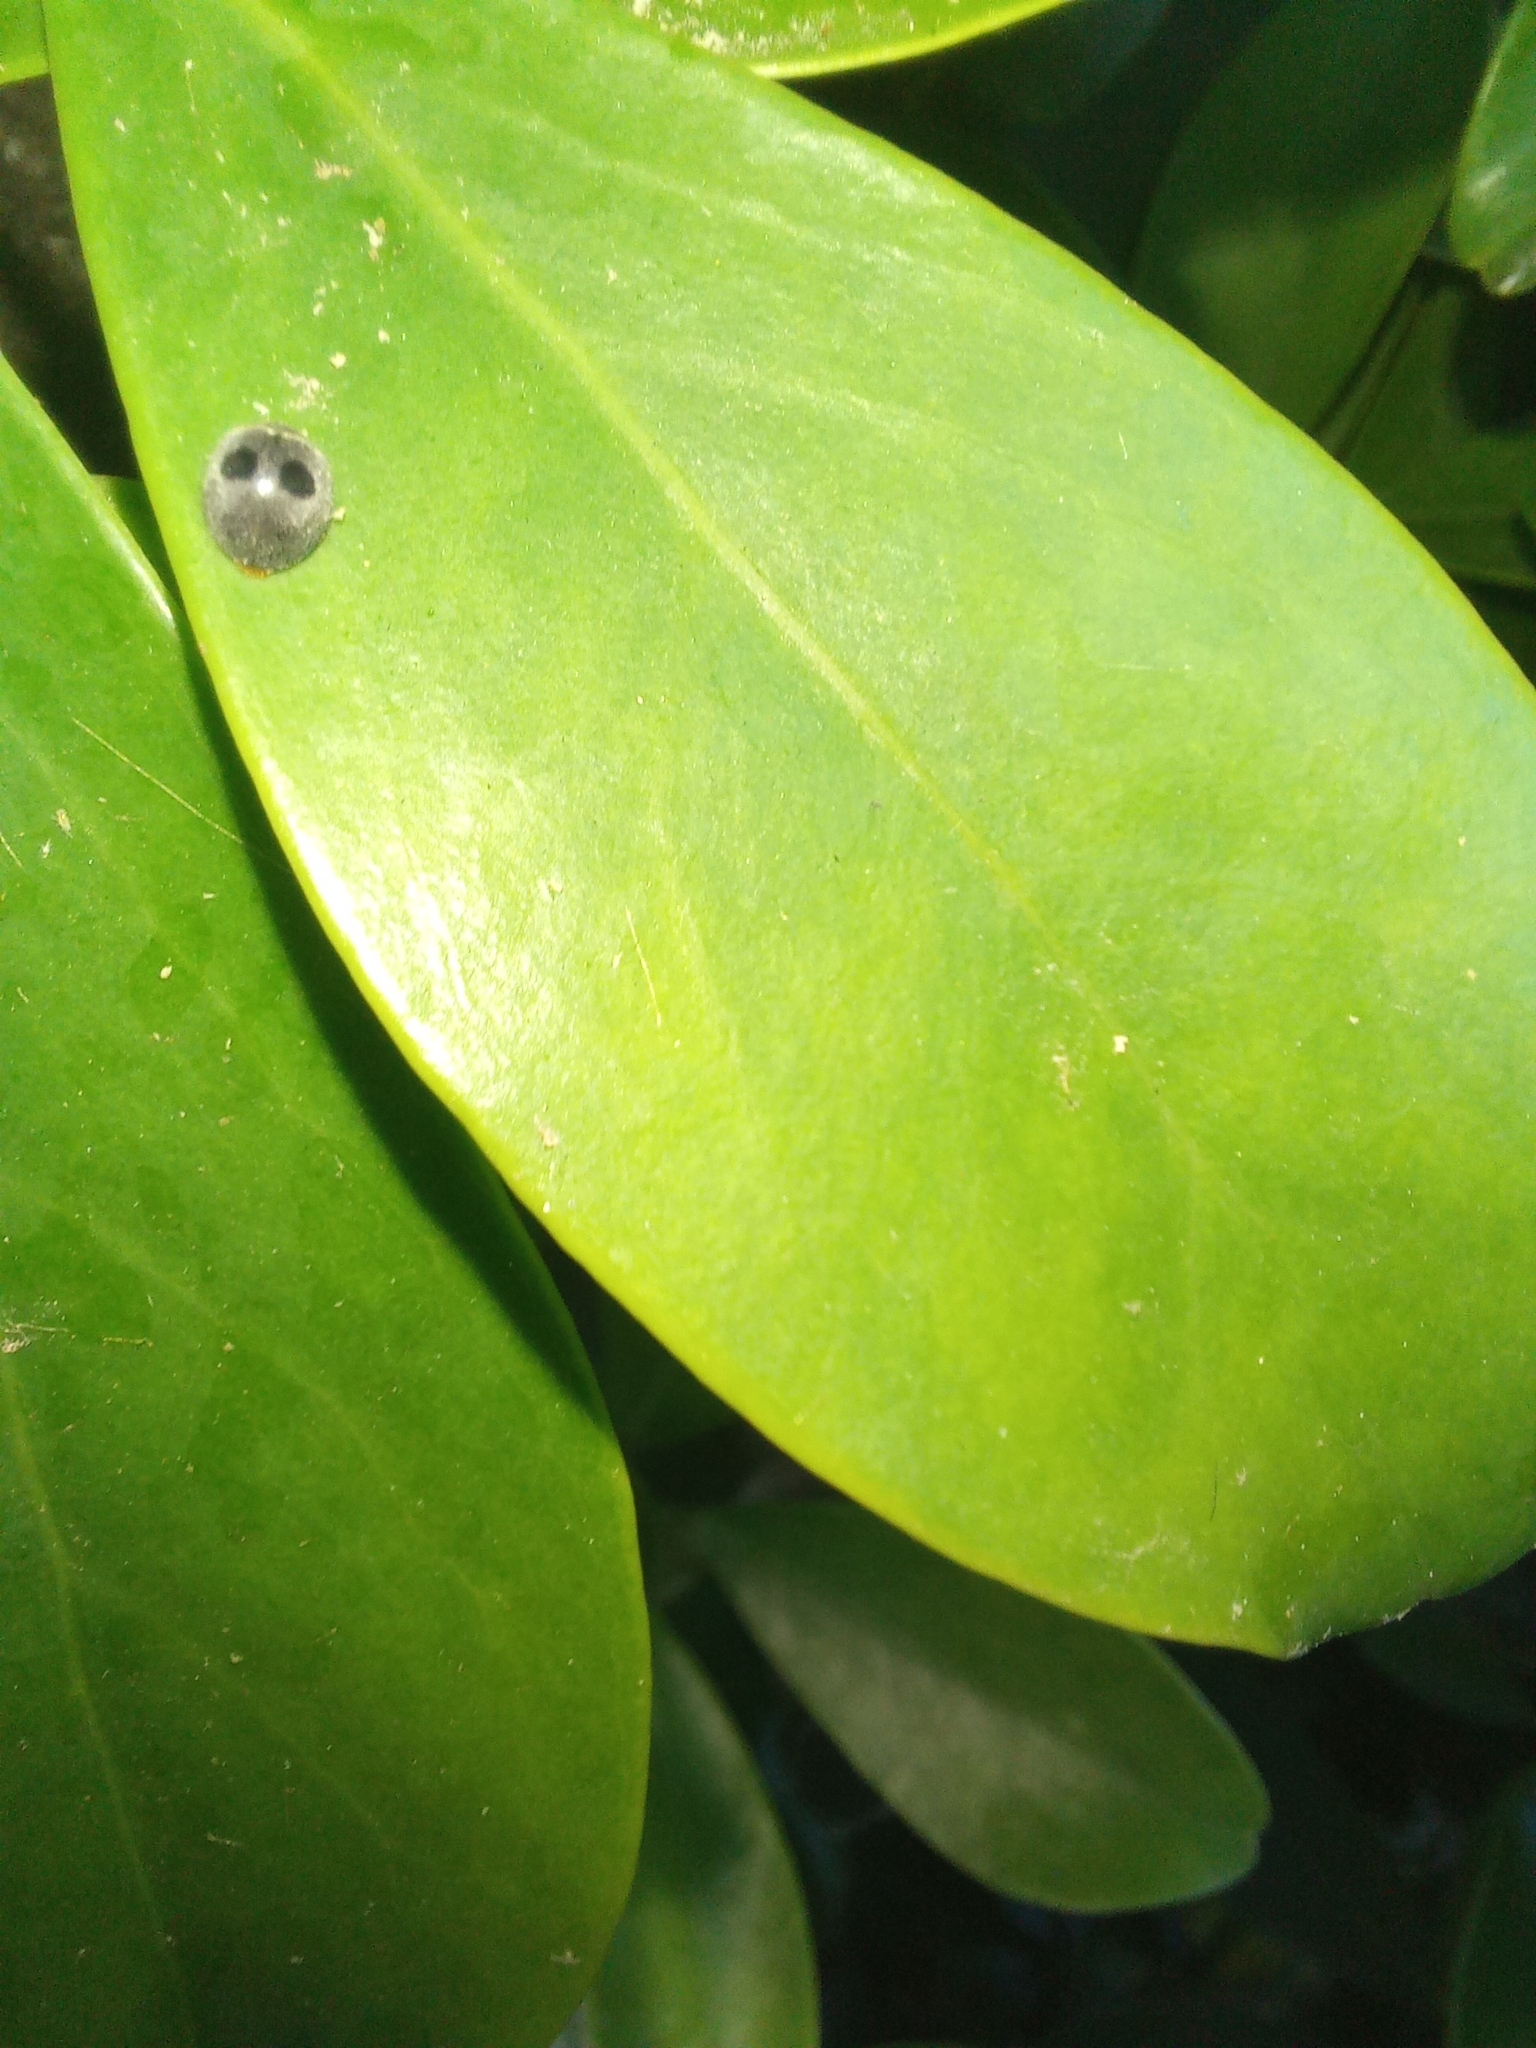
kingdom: Animalia
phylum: Arthropoda
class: Insecta
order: Coleoptera
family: Coccinellidae
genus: Azya
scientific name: Azya luteipes
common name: Ladybird beetle
